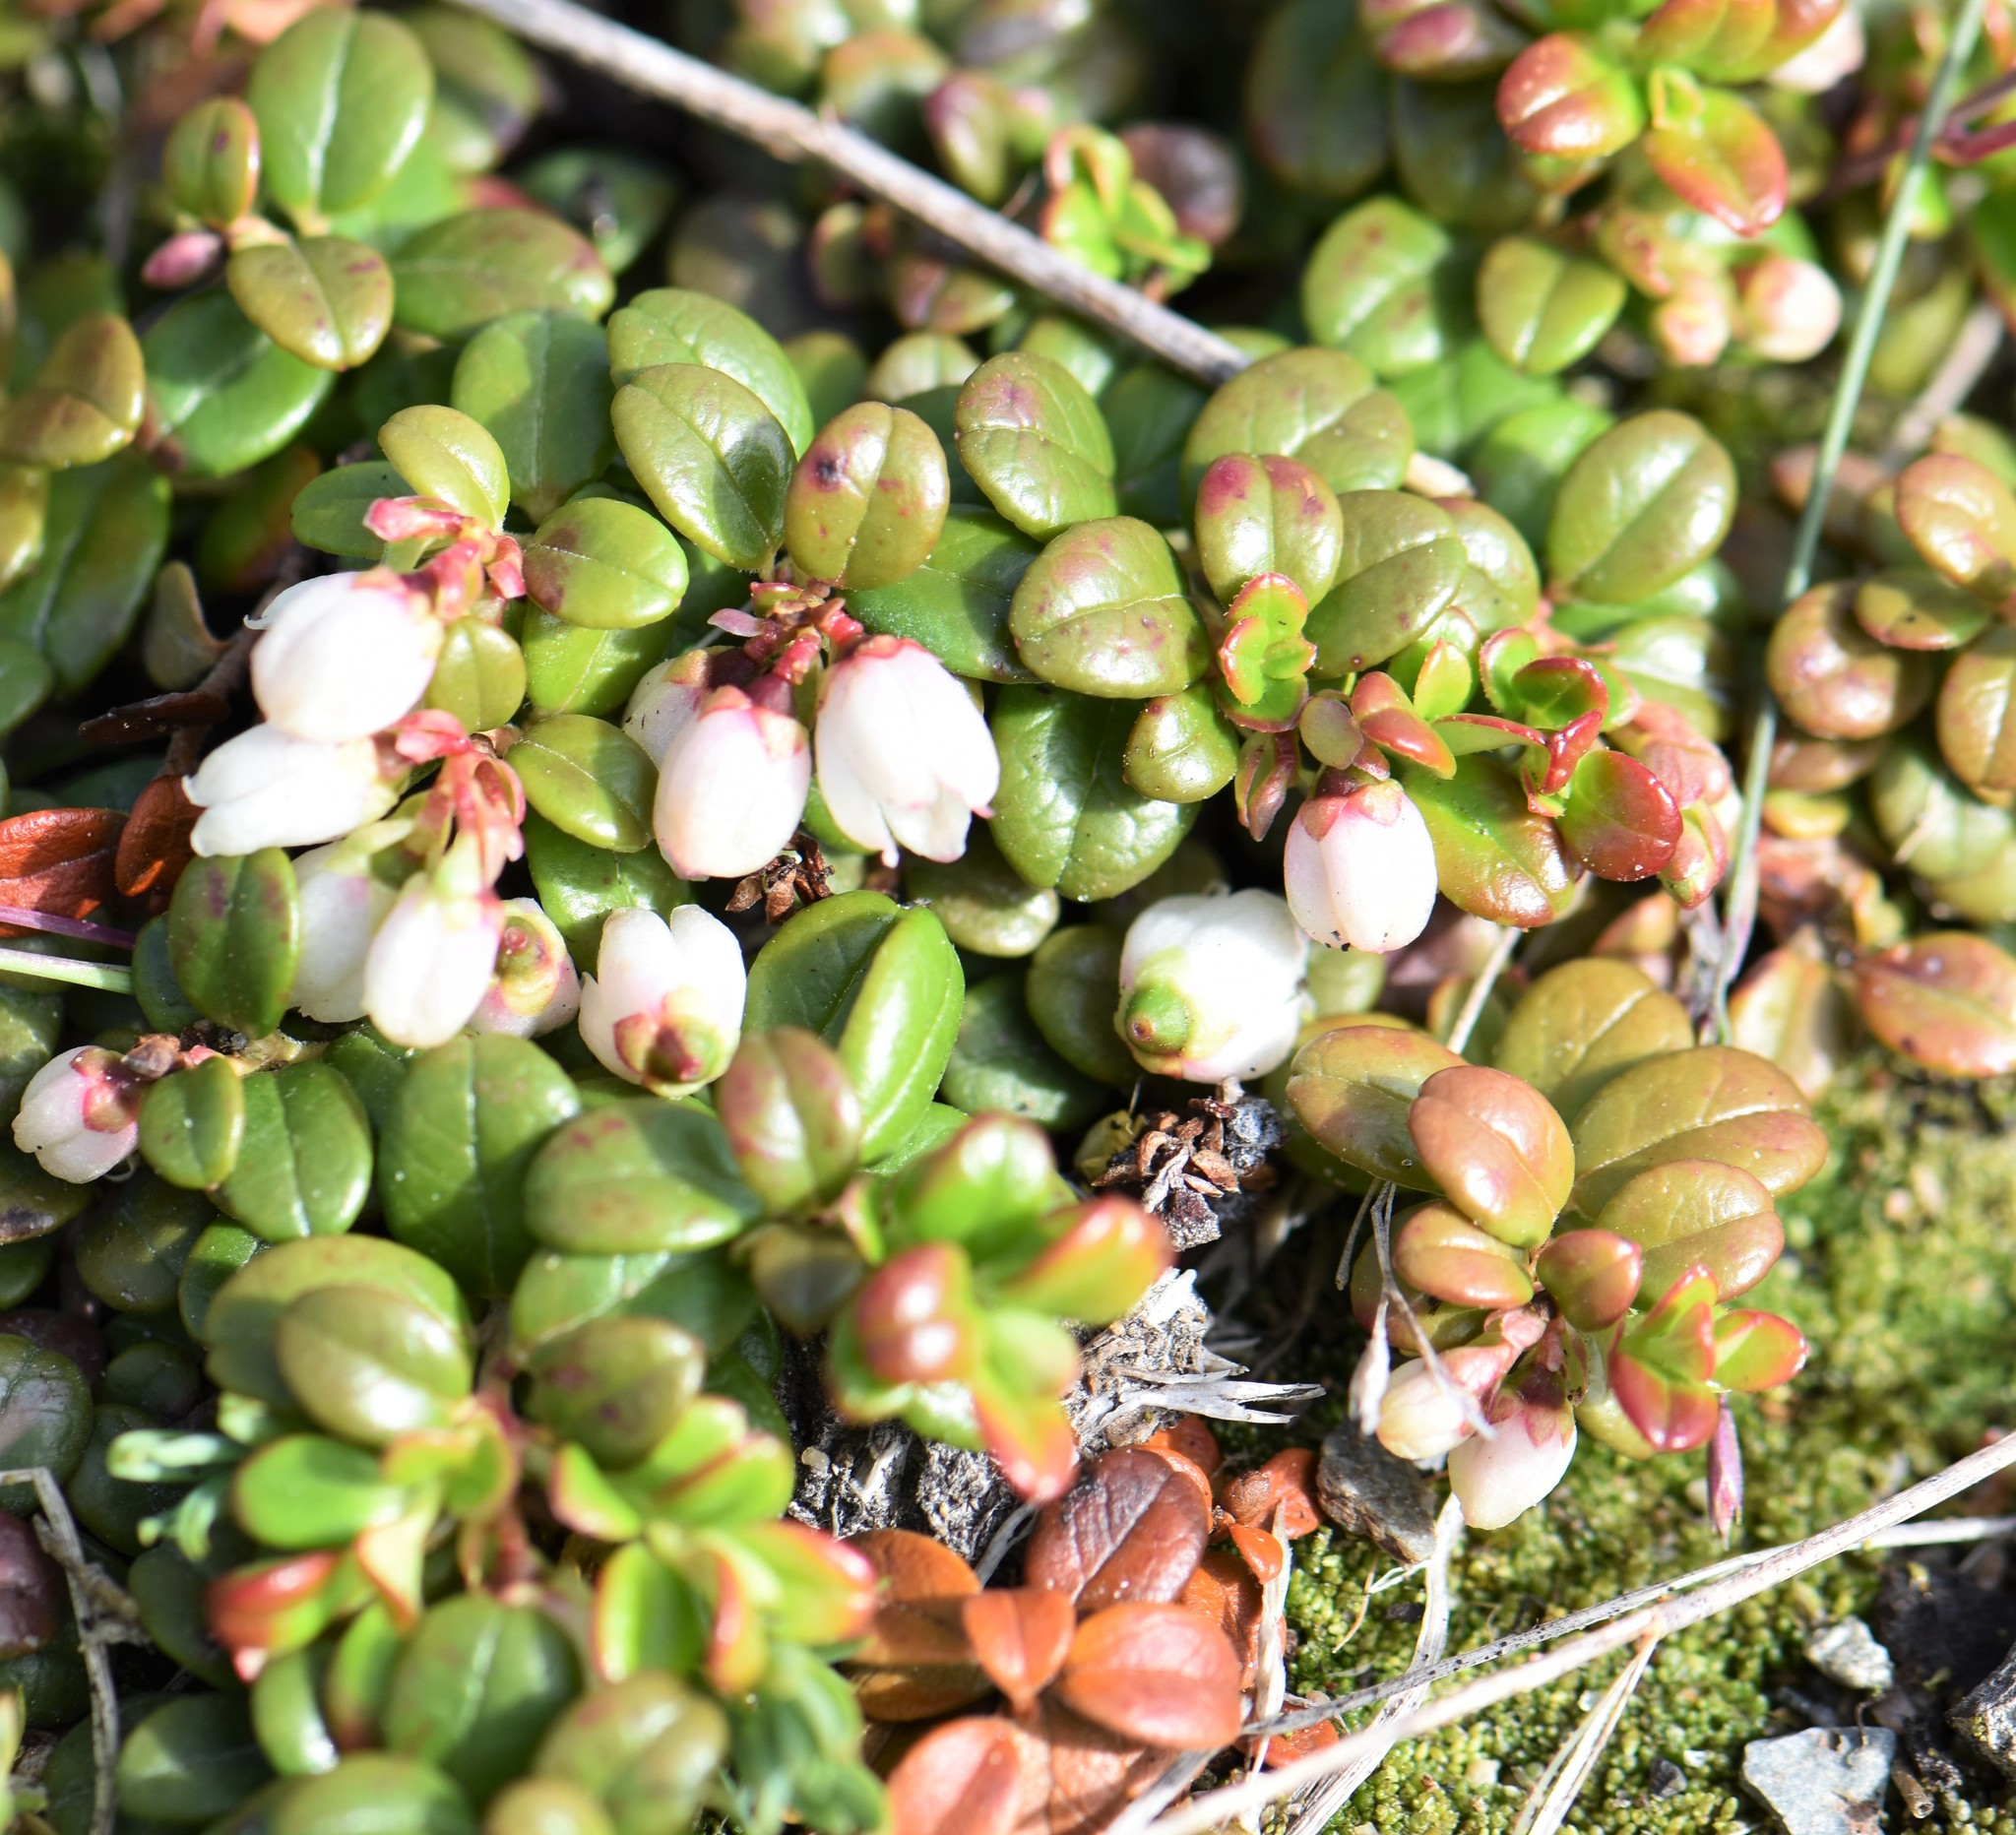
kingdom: Plantae
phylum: Tracheophyta
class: Magnoliopsida
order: Ericales
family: Ericaceae
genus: Vaccinium
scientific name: Vaccinium vitis-idaea
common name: Cowberry
